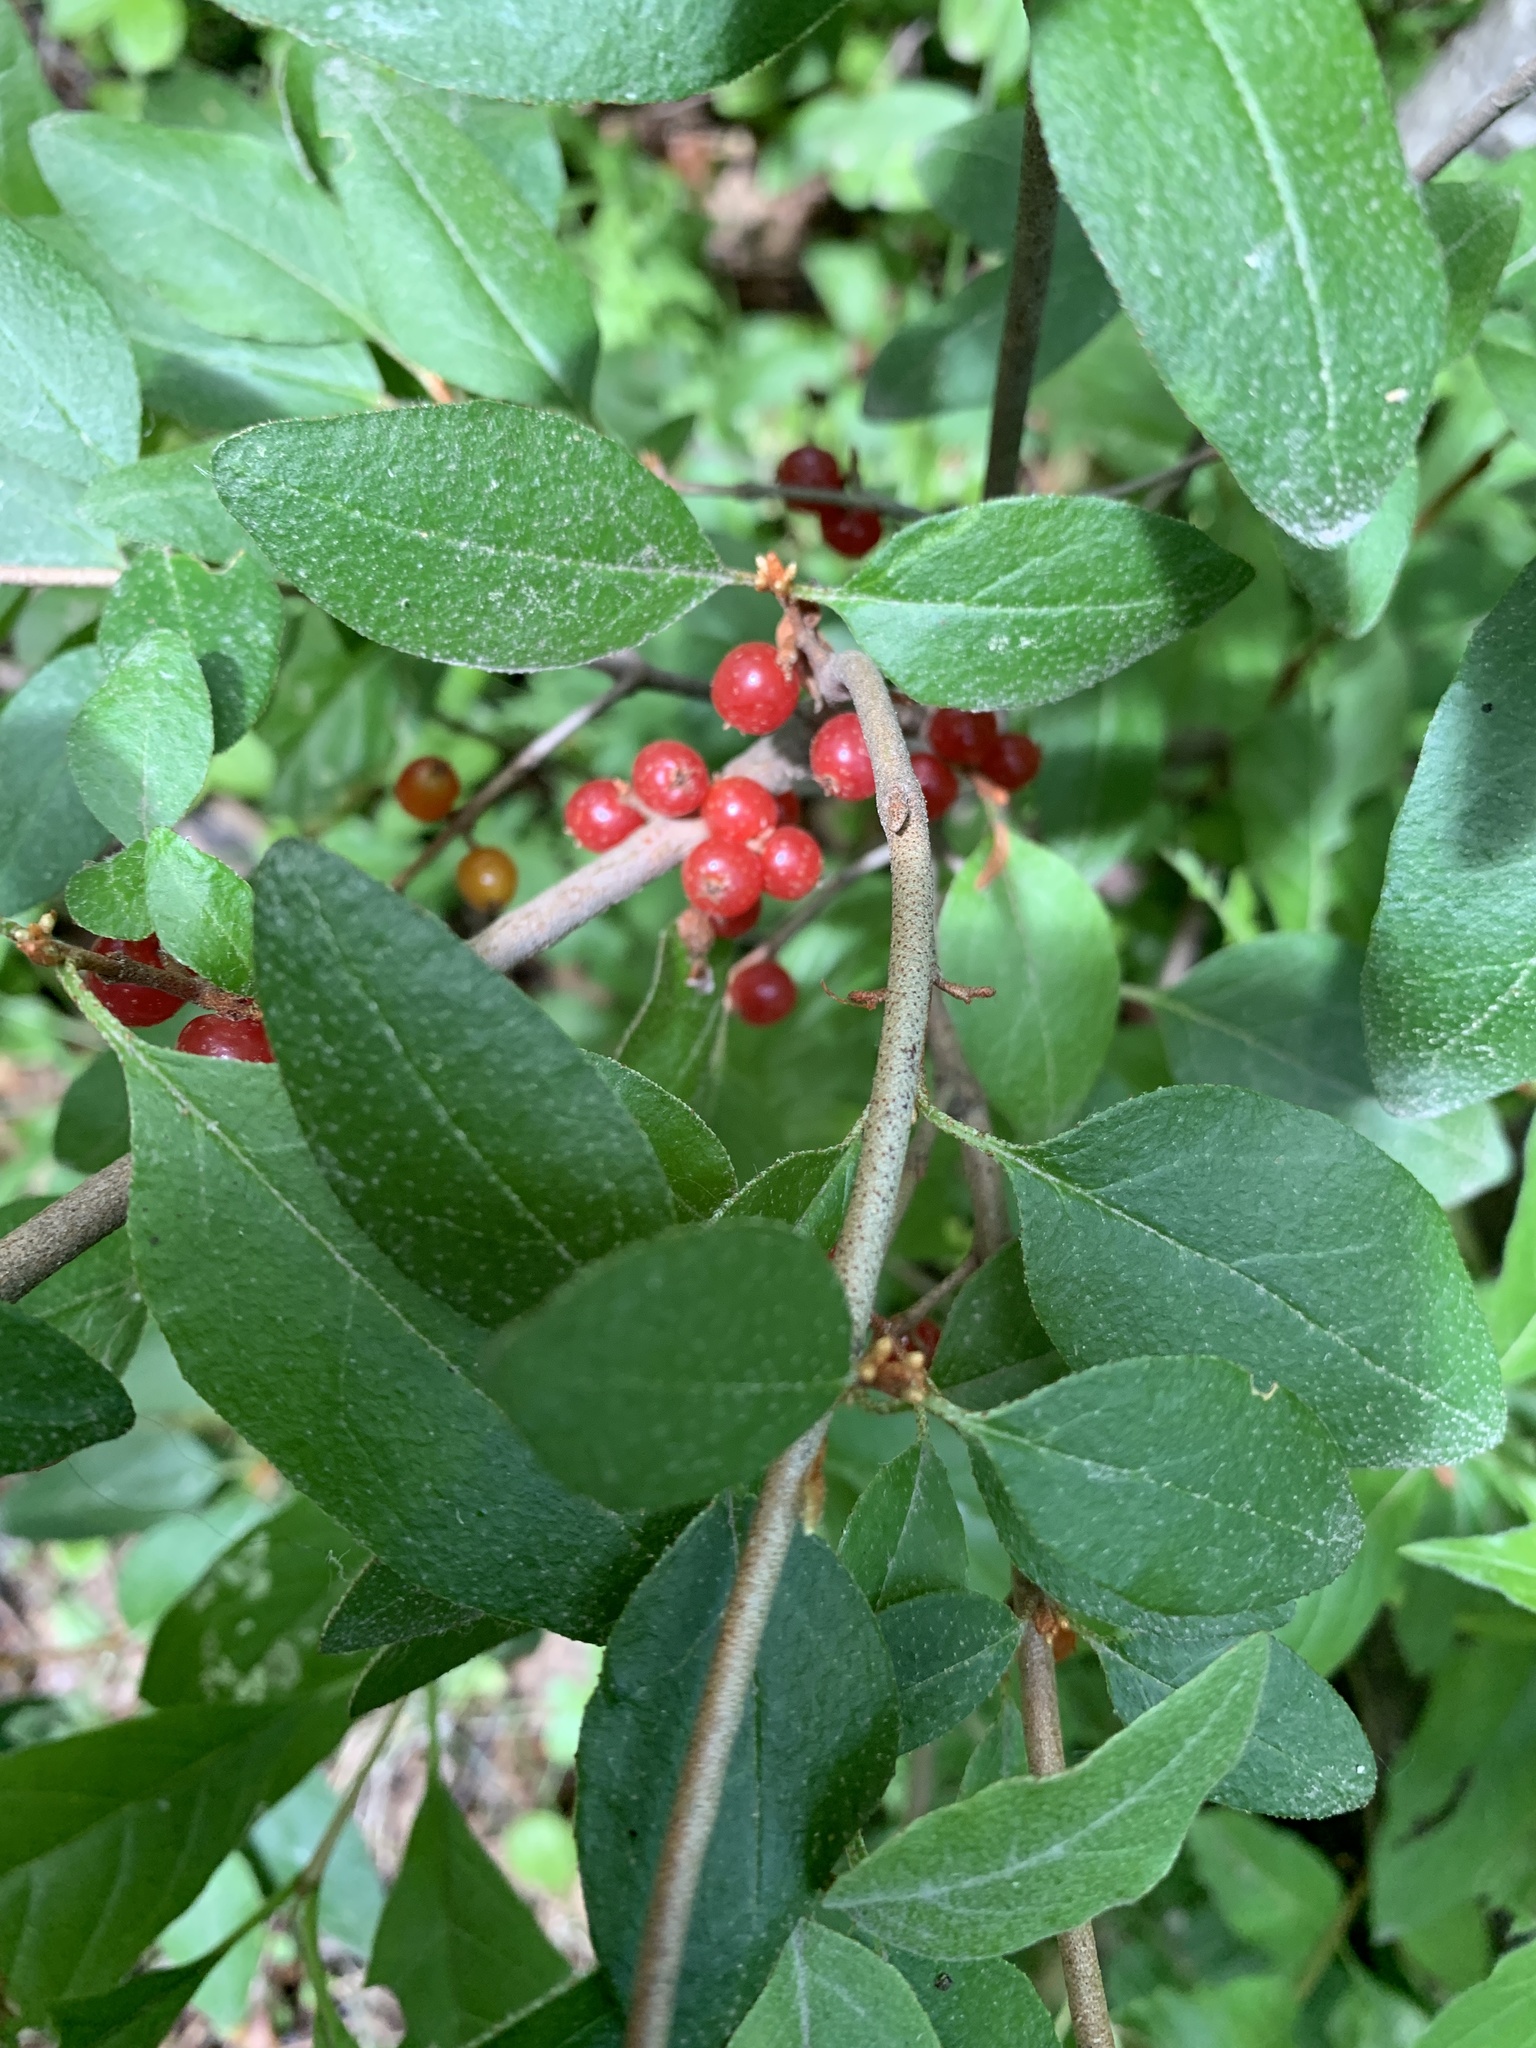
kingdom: Plantae
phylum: Tracheophyta
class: Magnoliopsida
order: Rosales
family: Elaeagnaceae
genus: Shepherdia
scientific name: Shepherdia canadensis
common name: Soapberry
